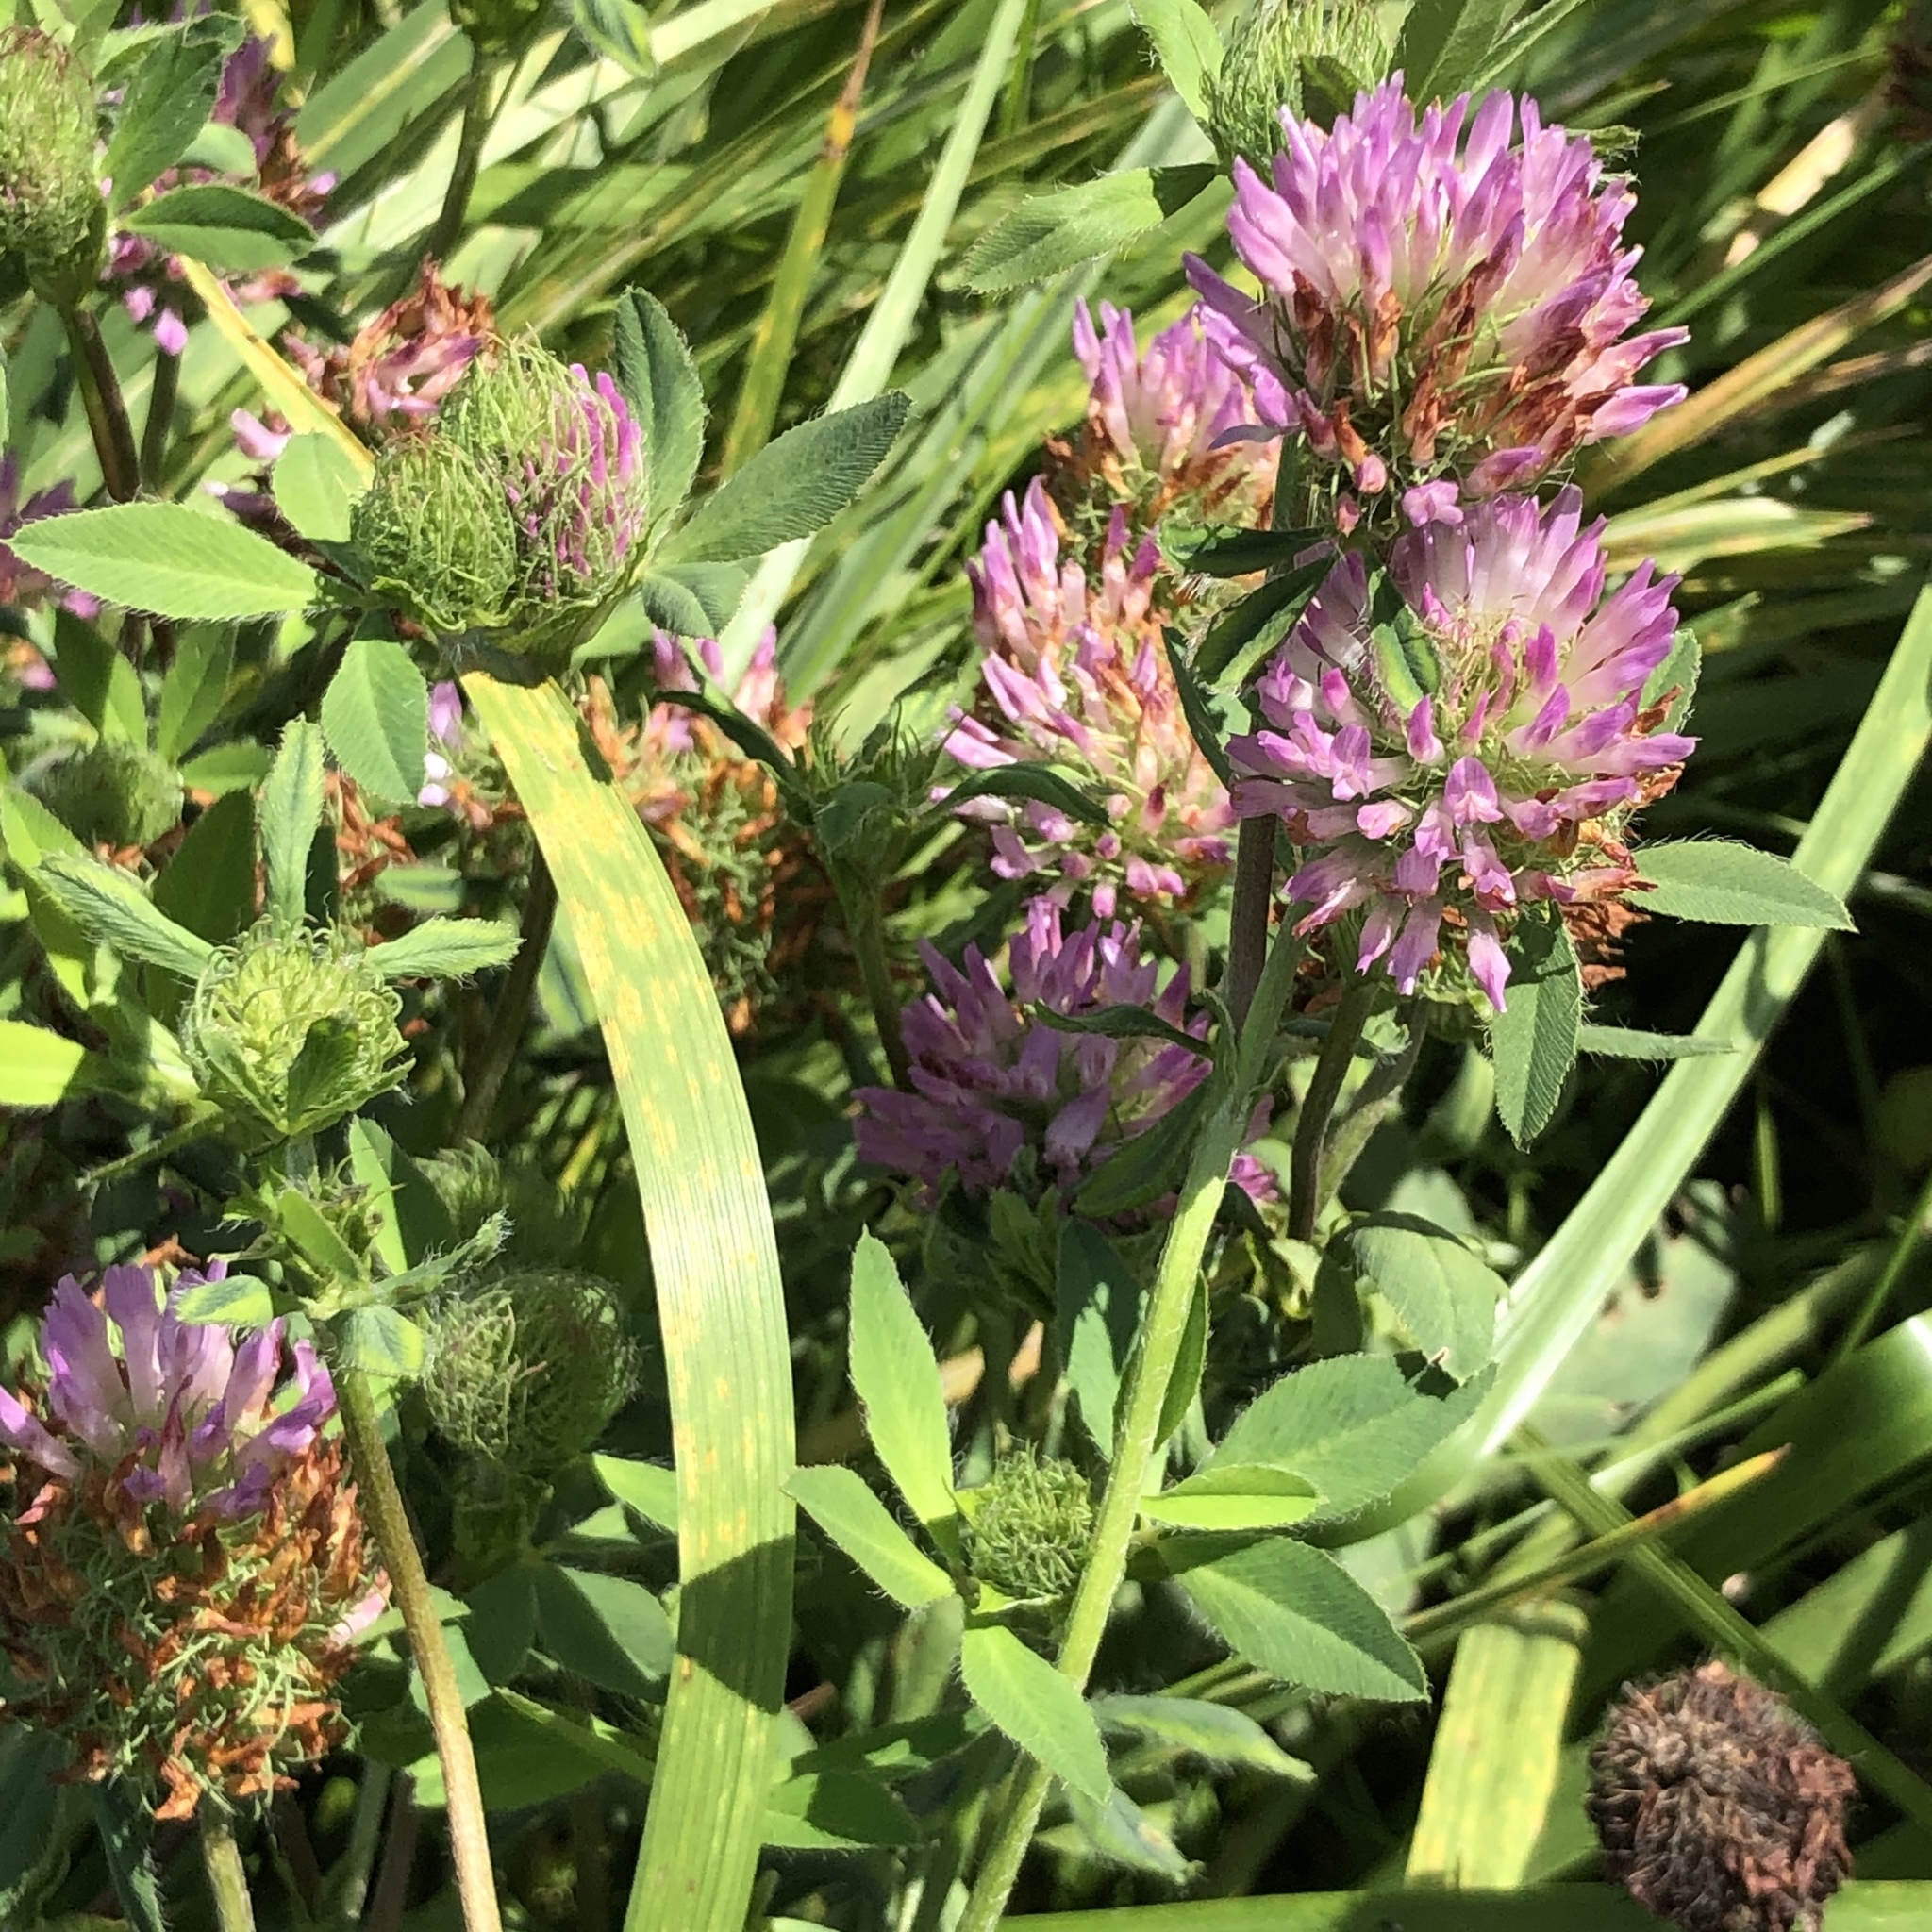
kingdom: Plantae
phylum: Tracheophyta
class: Magnoliopsida
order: Fabales
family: Fabaceae
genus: Trifolium
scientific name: Trifolium pratense
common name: Red clover
